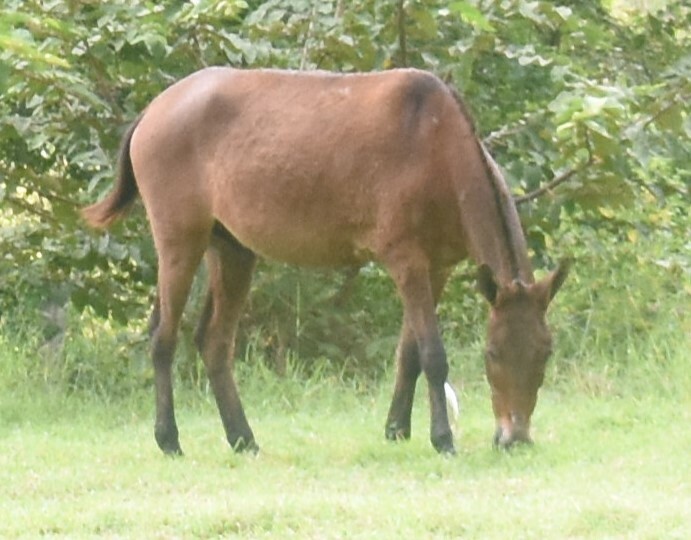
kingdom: Animalia
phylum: Chordata
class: Mammalia
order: Perissodactyla
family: Equidae
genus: Equus
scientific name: Equus caballus
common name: Horse
